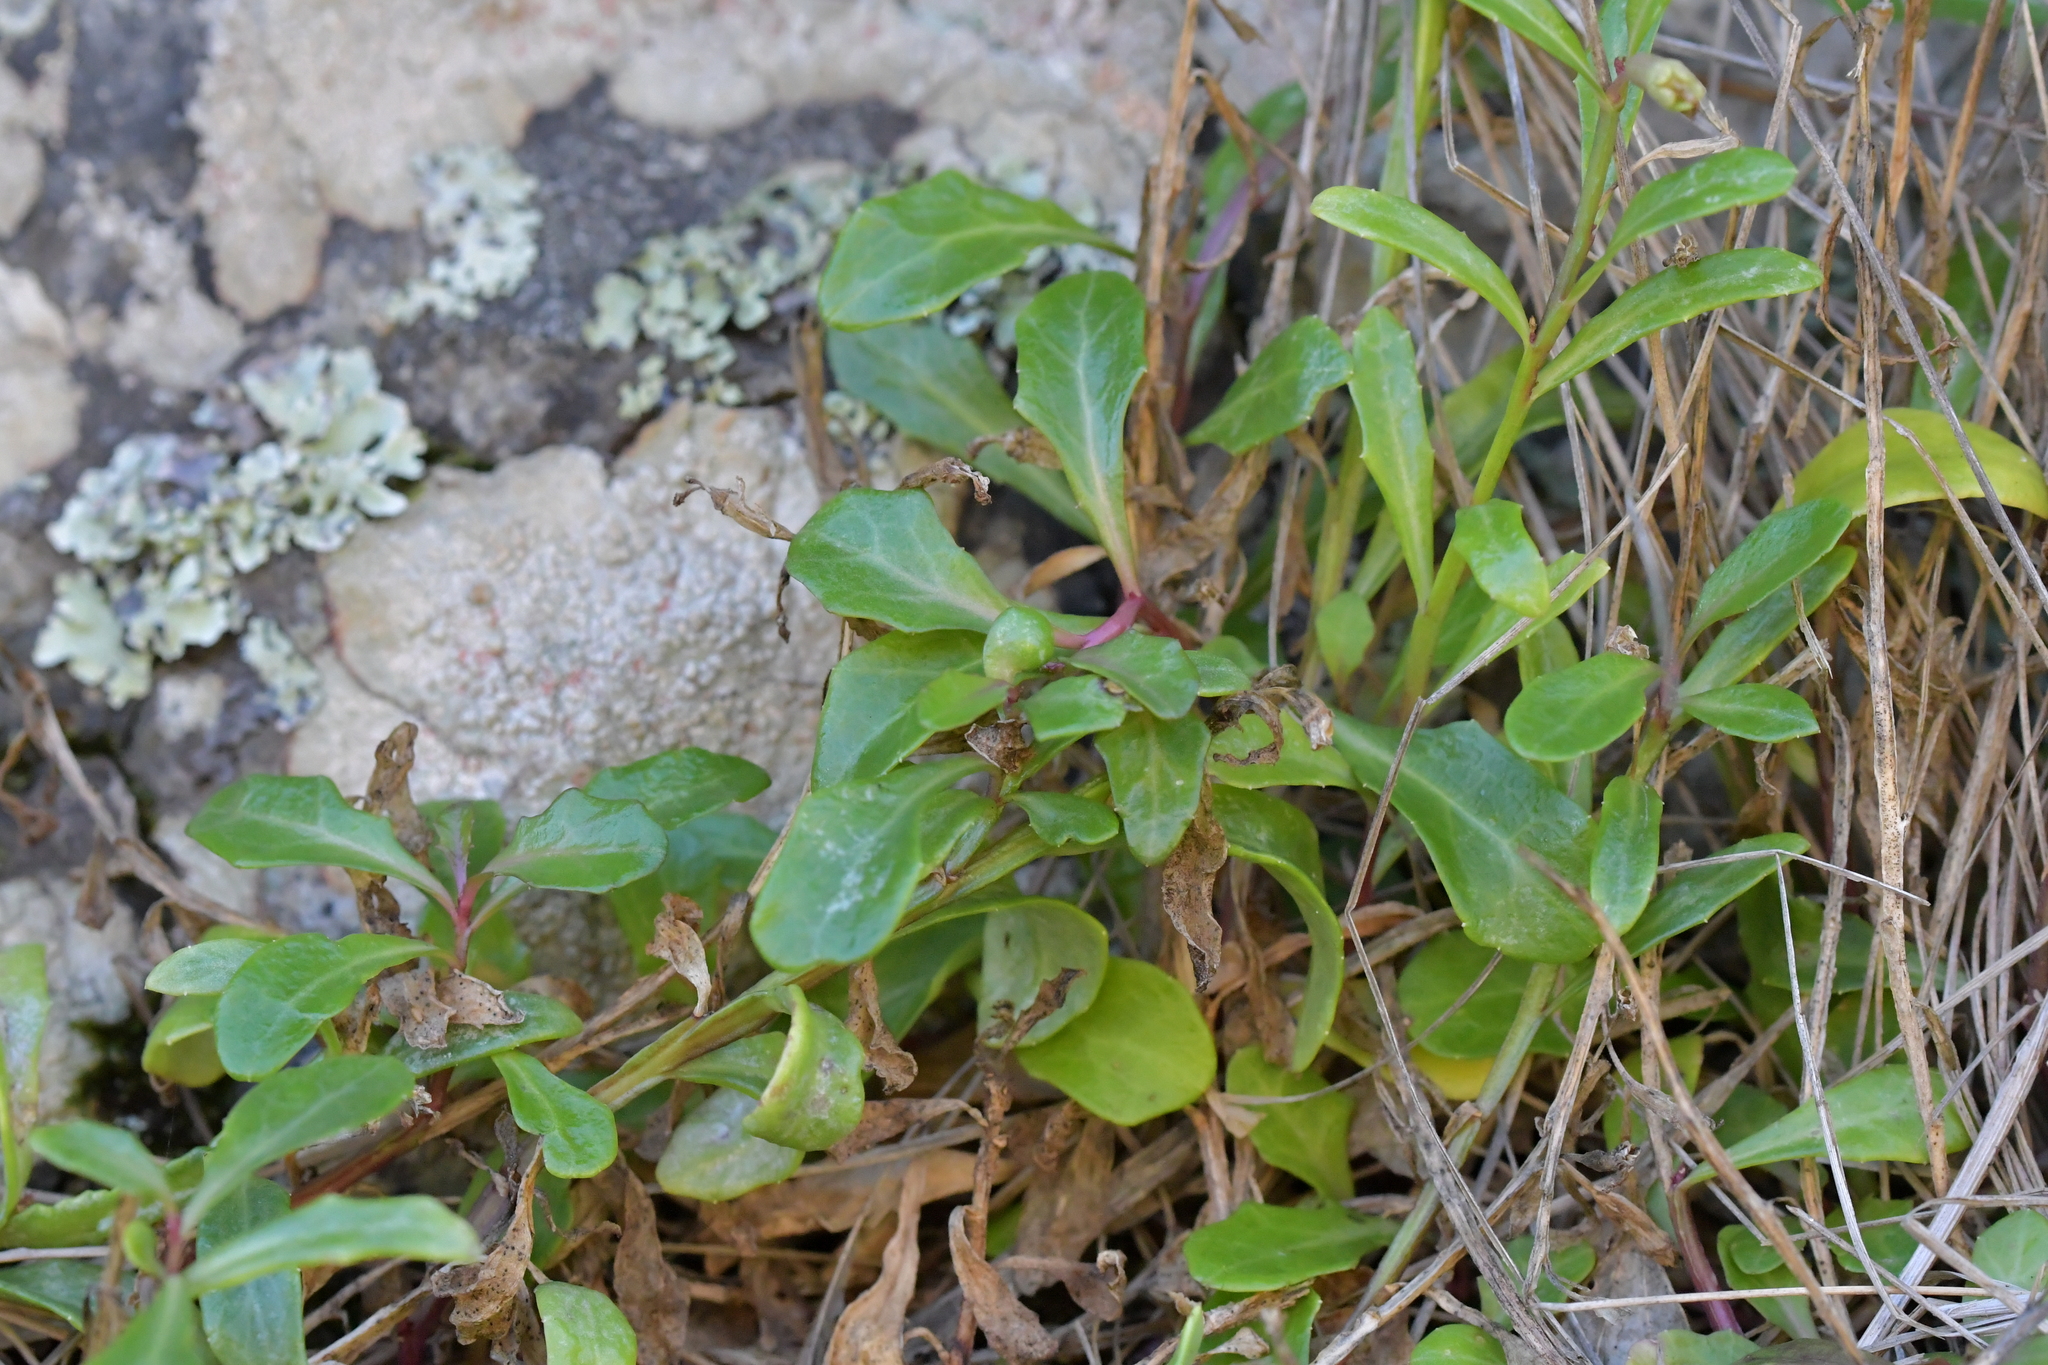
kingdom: Plantae
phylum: Tracheophyta
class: Magnoliopsida
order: Asterales
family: Campanulaceae
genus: Lobelia
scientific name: Lobelia anceps
